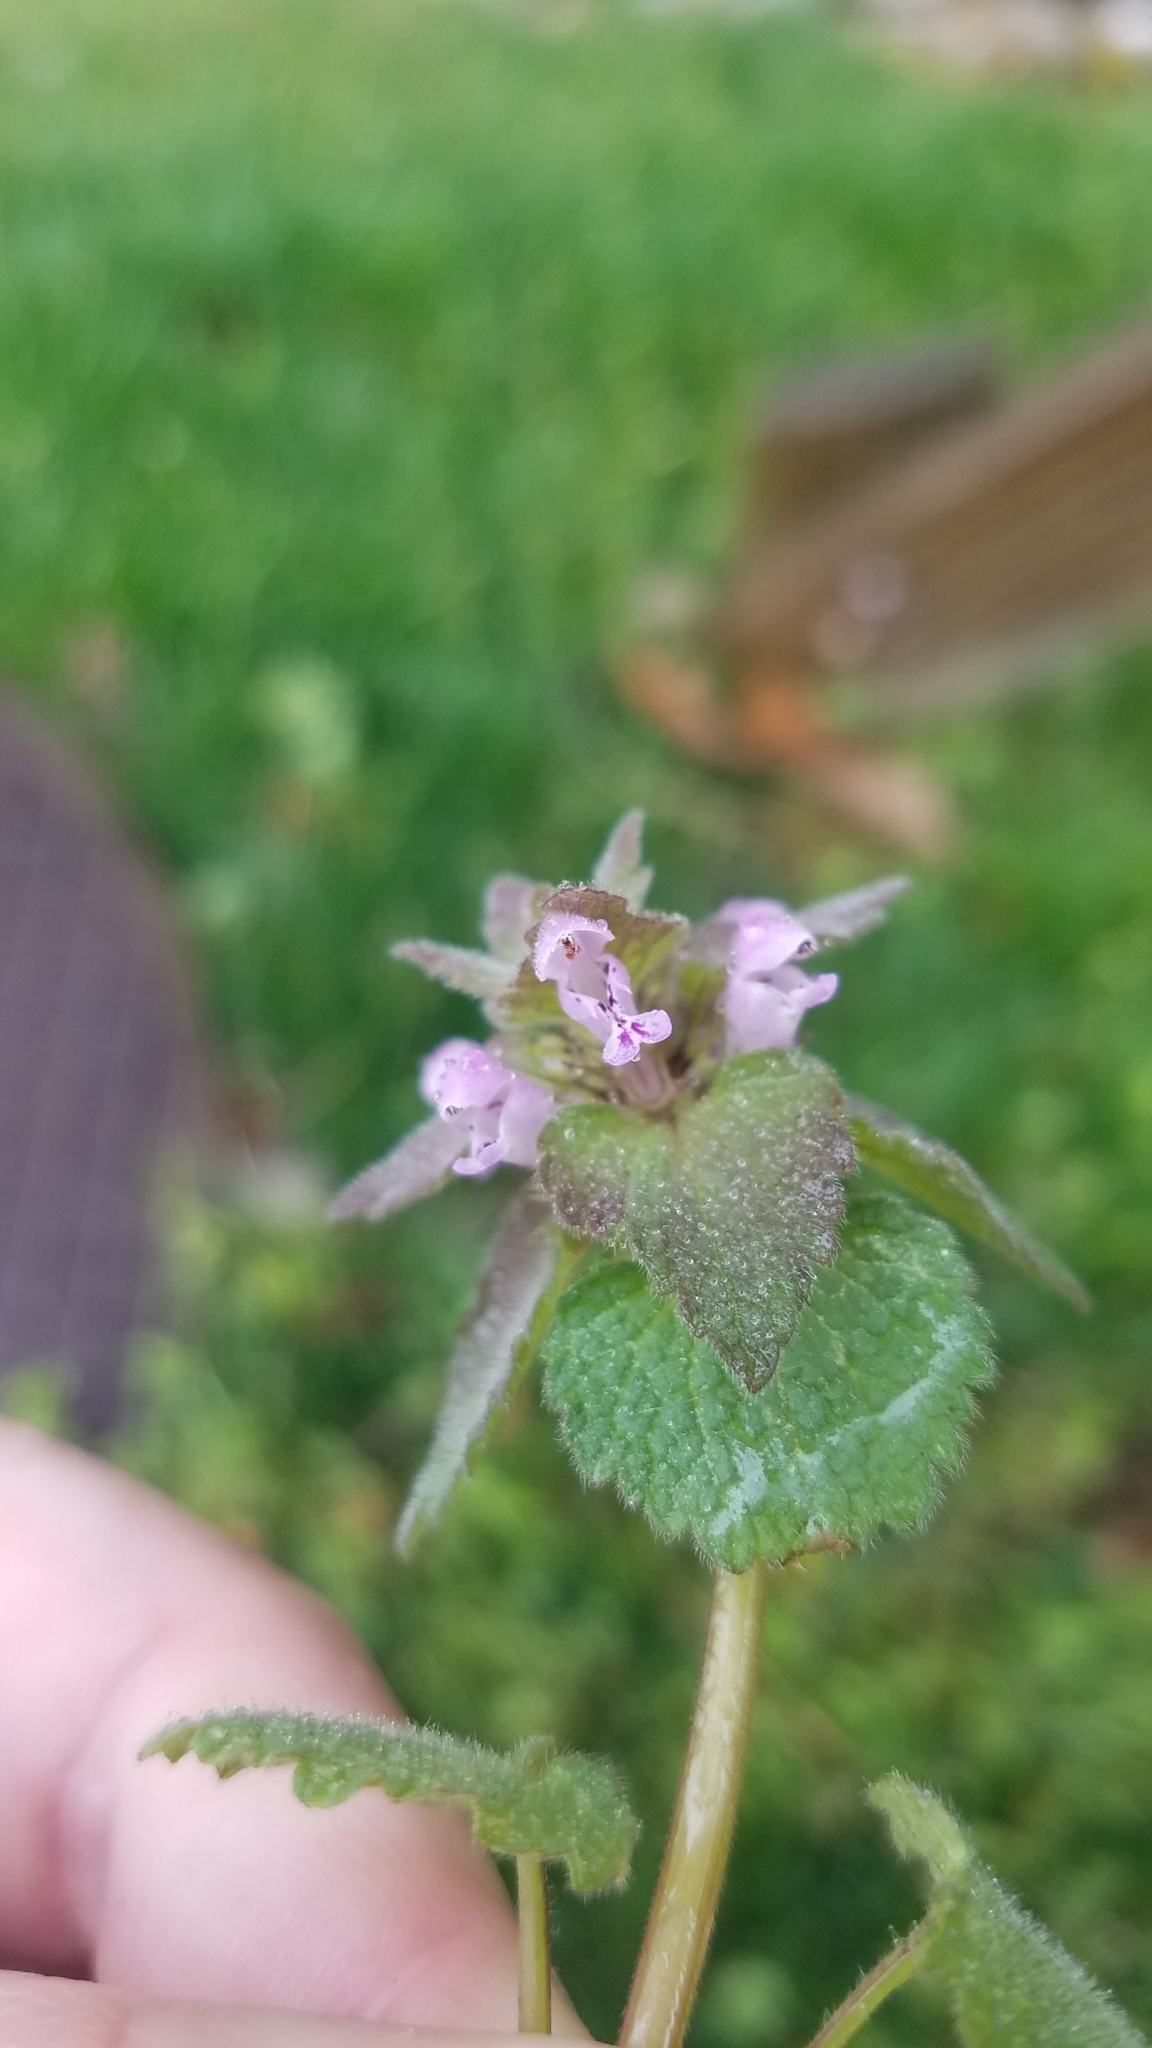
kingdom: Plantae
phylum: Tracheophyta
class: Magnoliopsida
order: Lamiales
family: Lamiaceae
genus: Lamium
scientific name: Lamium purpureum
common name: Red dead-nettle
